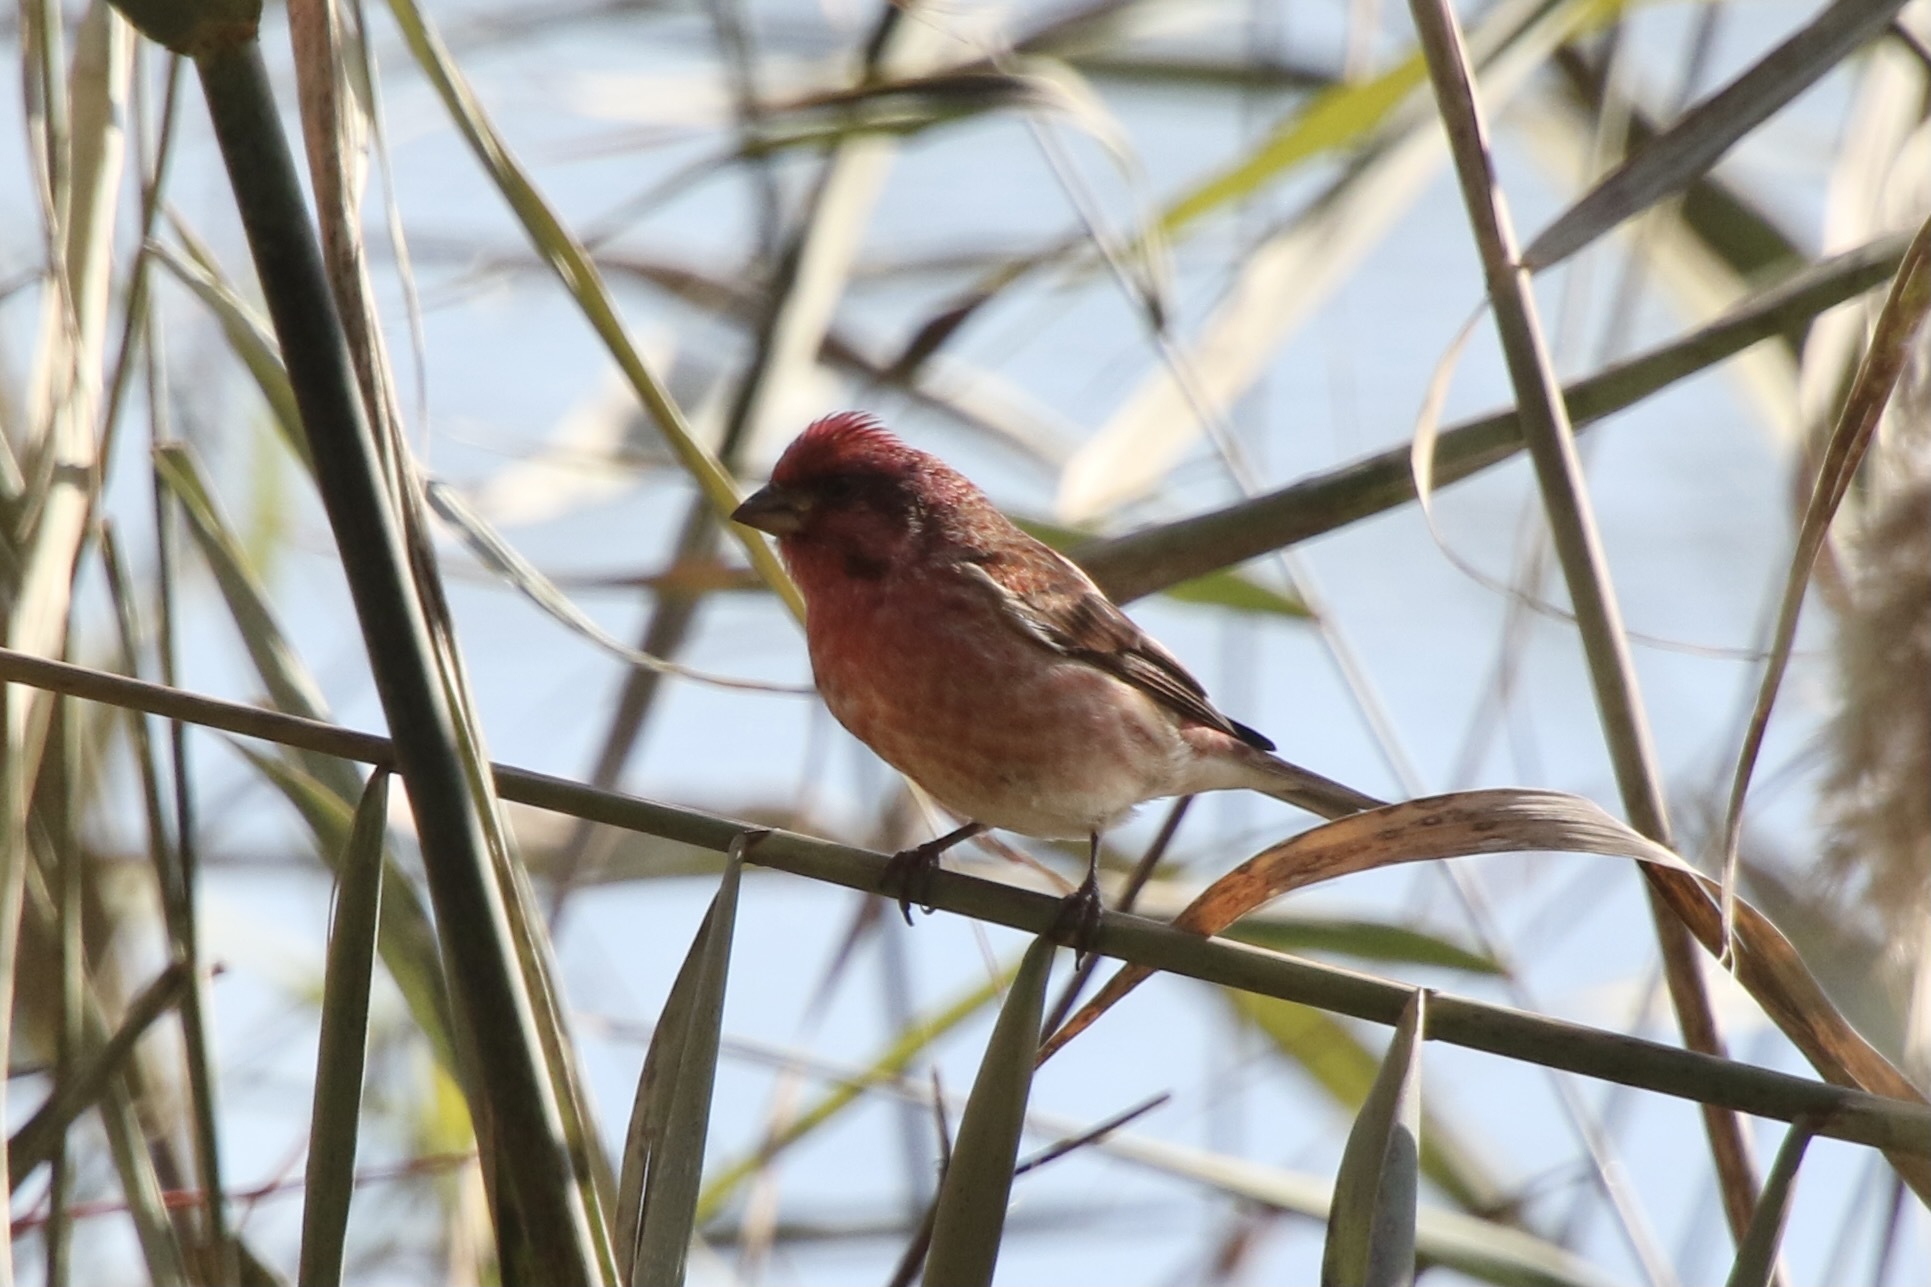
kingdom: Animalia
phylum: Chordata
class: Aves
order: Passeriformes
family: Fringillidae
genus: Haemorhous
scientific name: Haemorhous purpureus
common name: Purple finch
